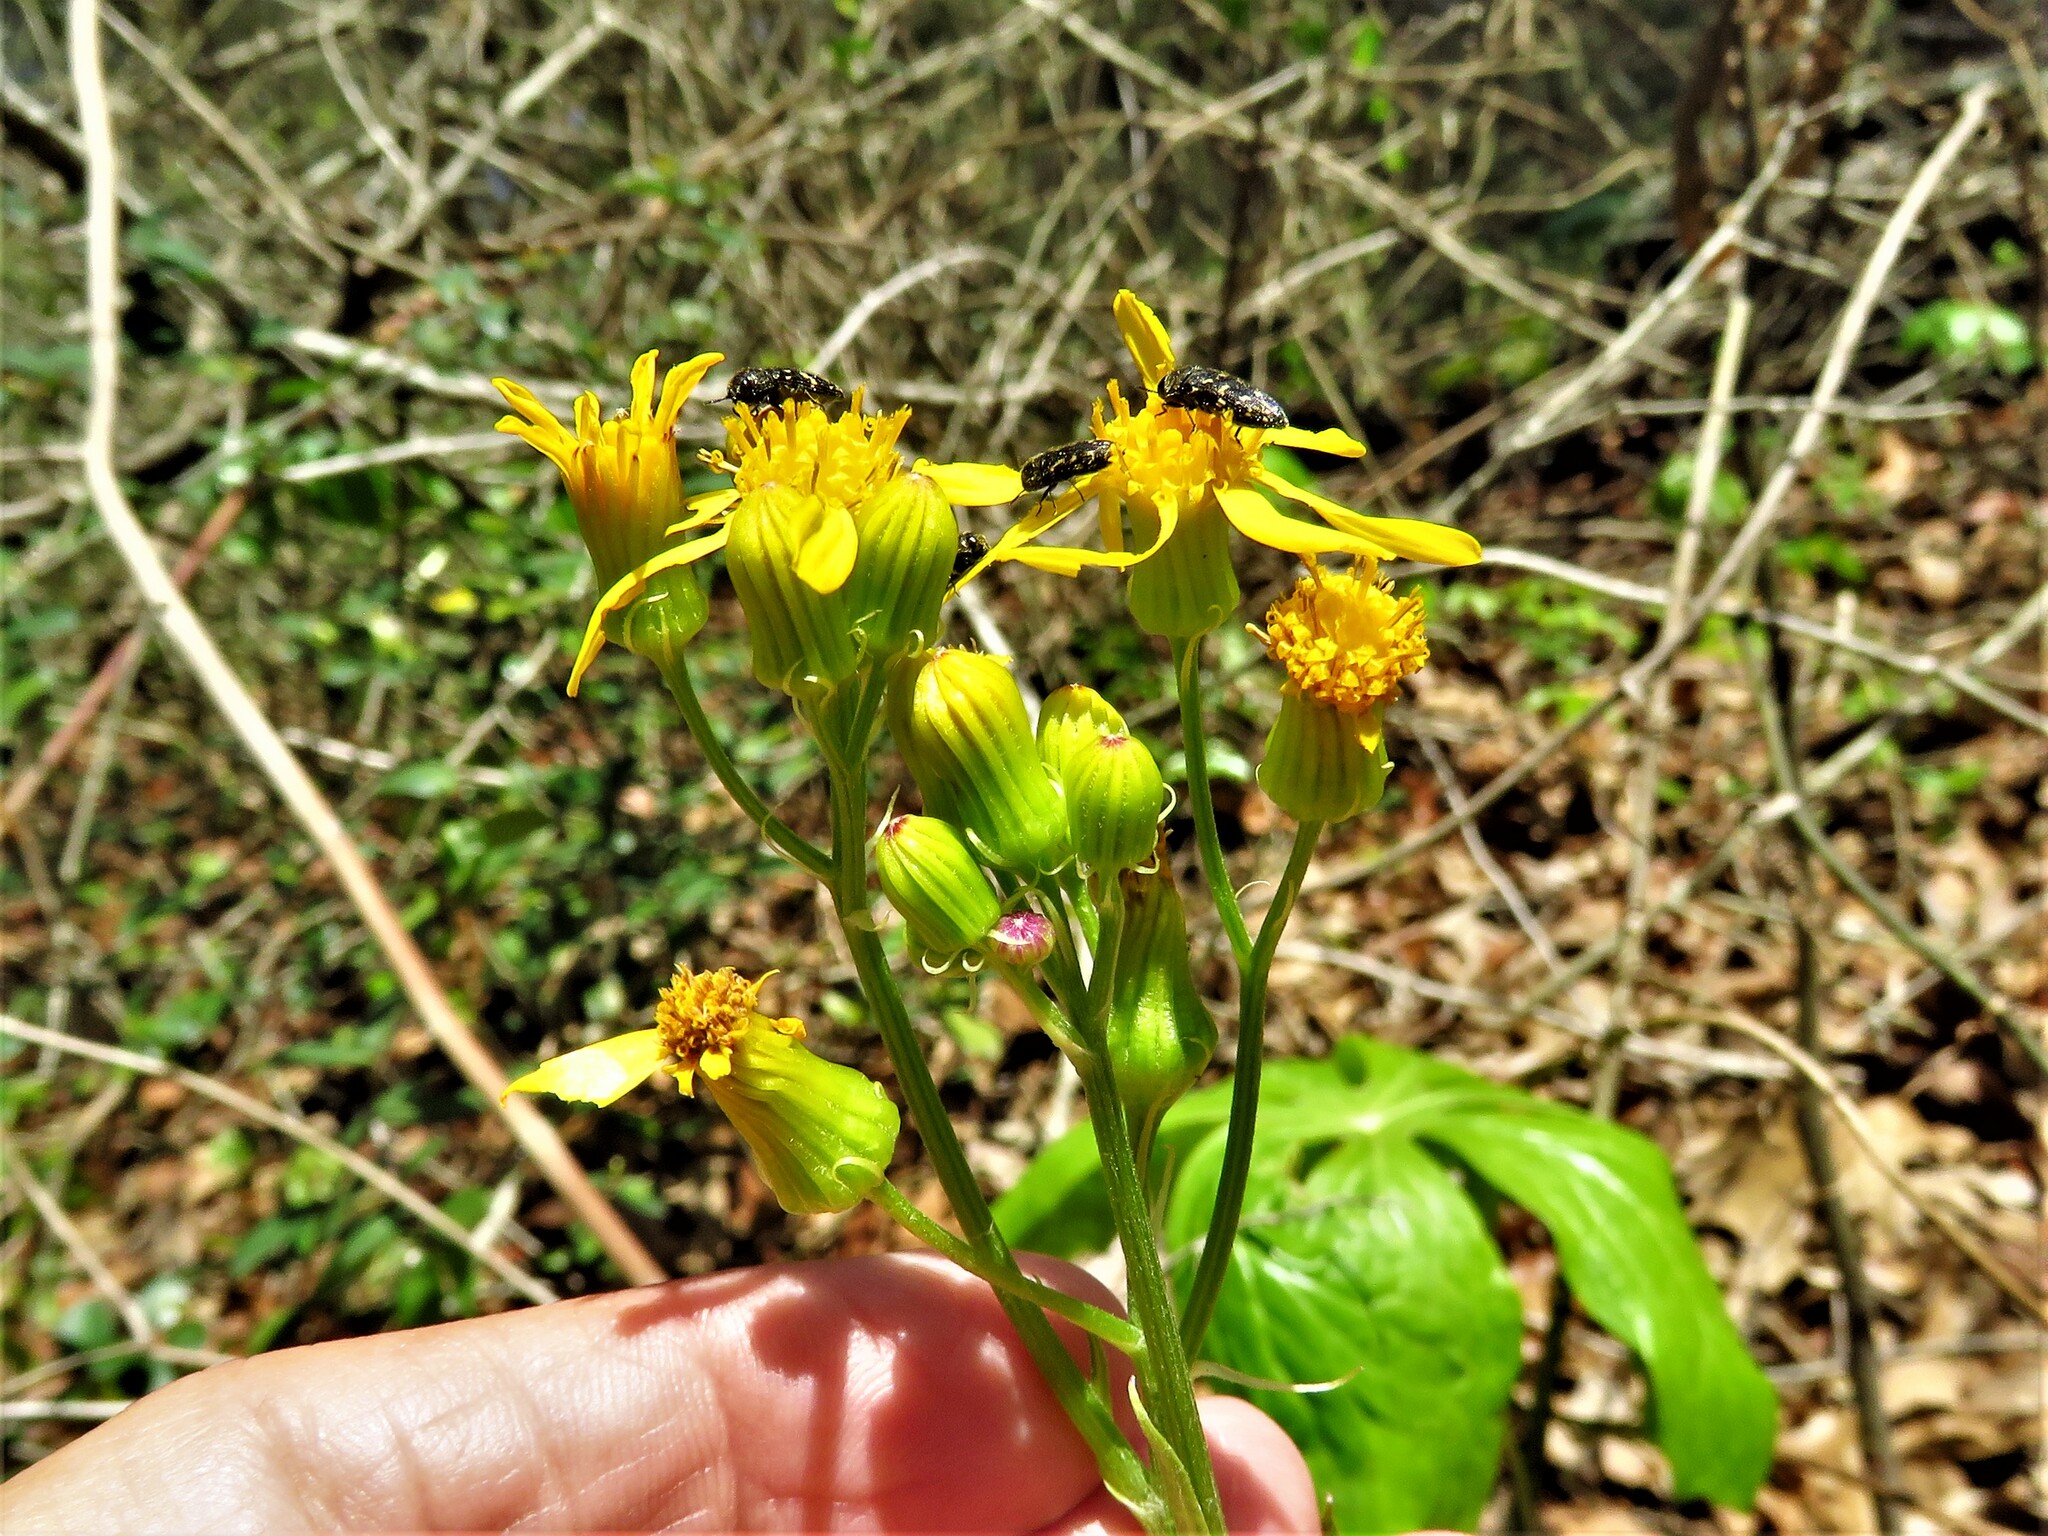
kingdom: Plantae
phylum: Tracheophyta
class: Magnoliopsida
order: Asterales
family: Asteraceae
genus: Senecio
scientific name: Senecio ampullaceus
